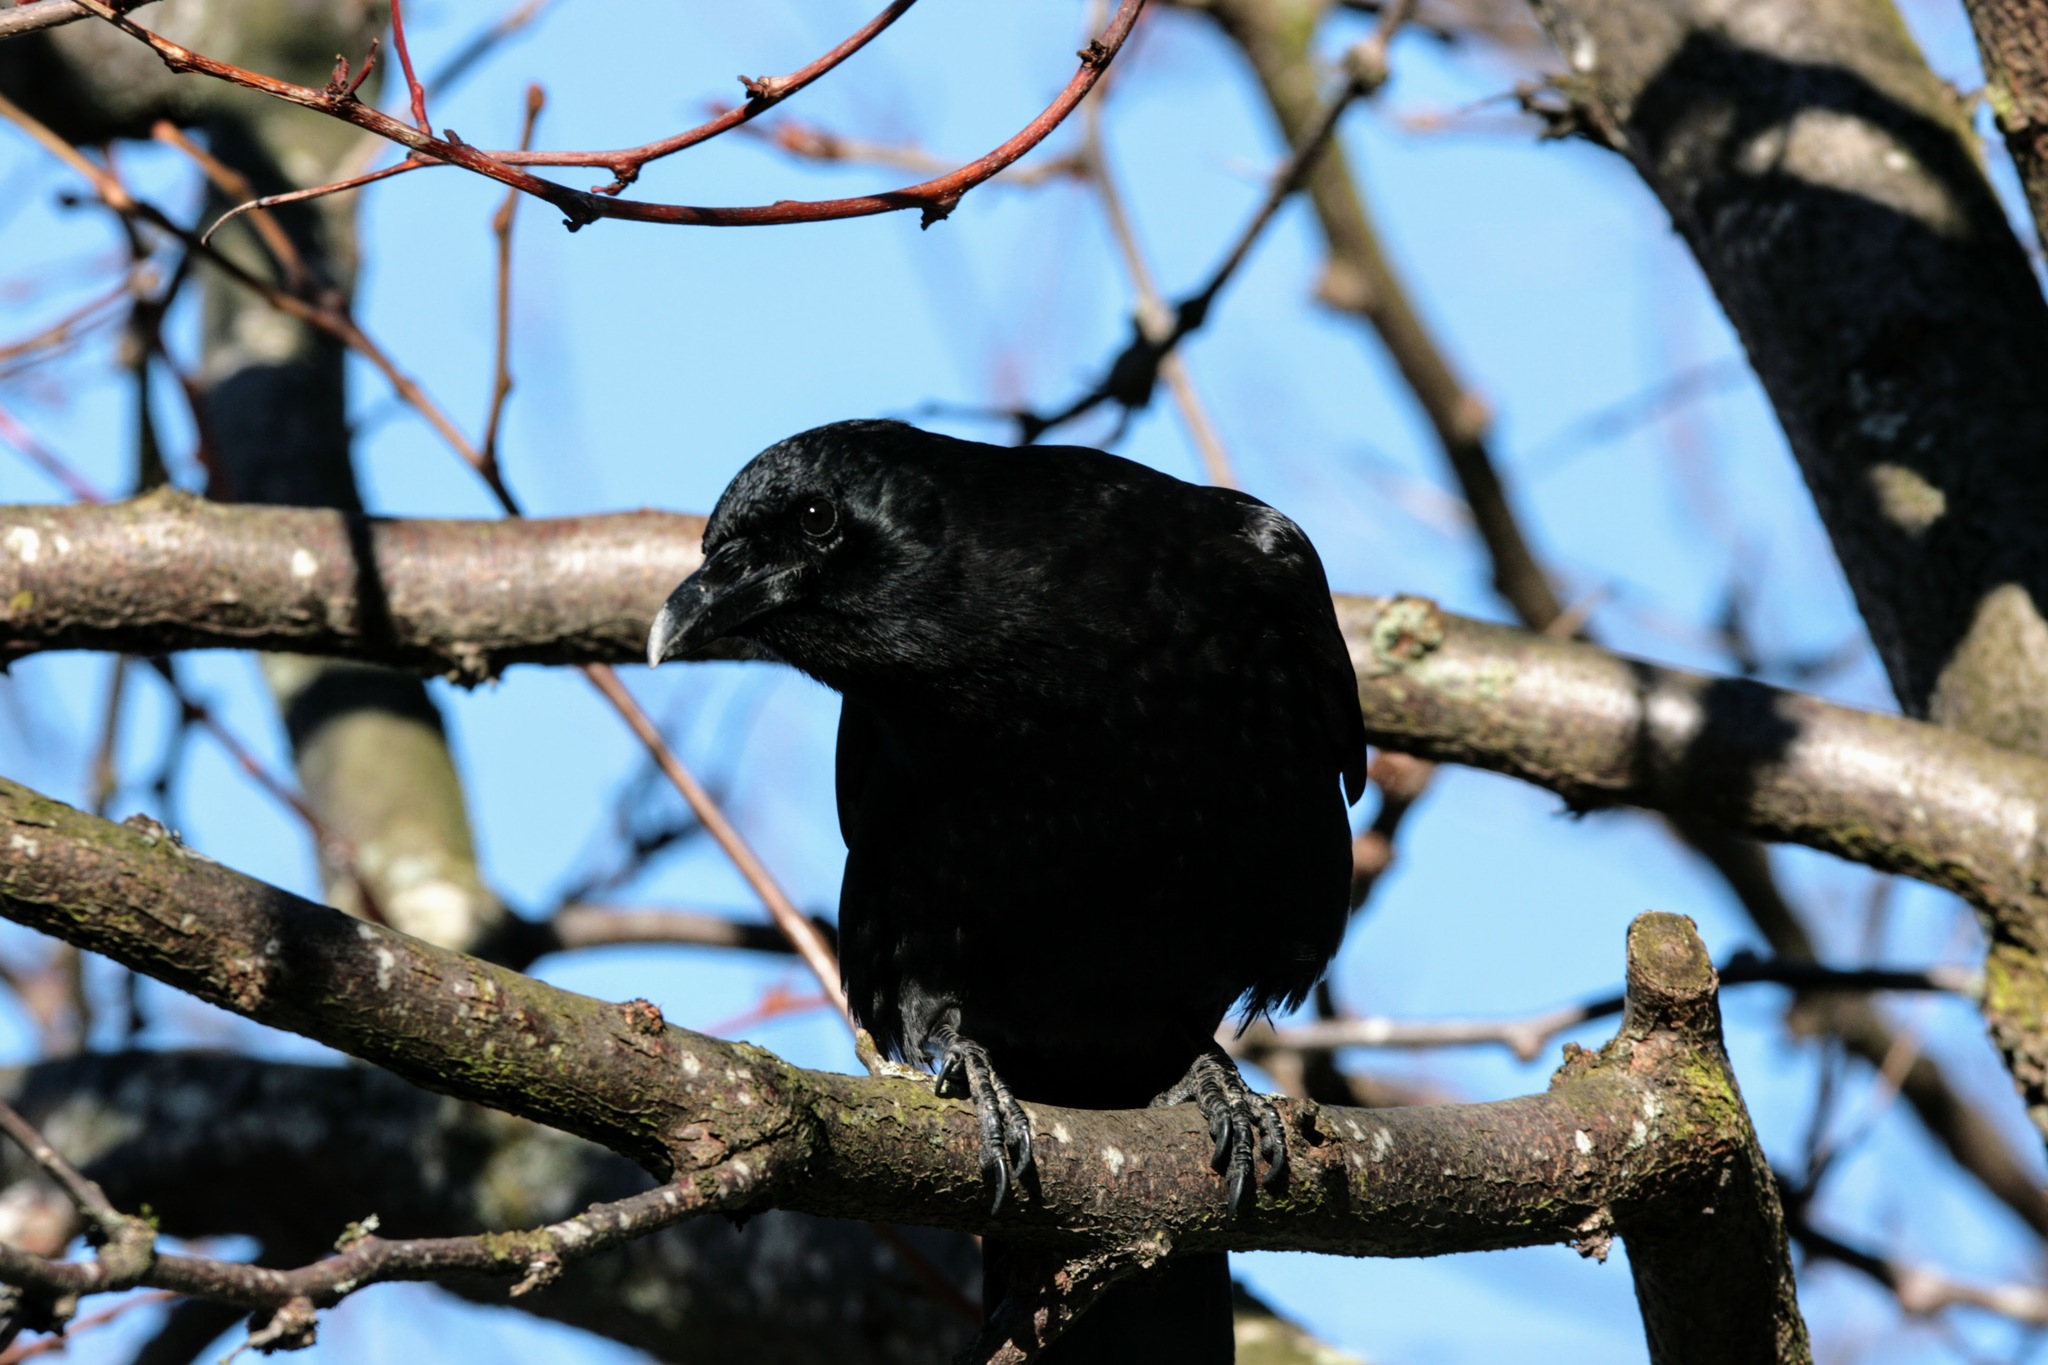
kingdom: Animalia
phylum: Chordata
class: Aves
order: Passeriformes
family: Corvidae
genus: Corvus
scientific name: Corvus brachyrhynchos
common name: American crow
